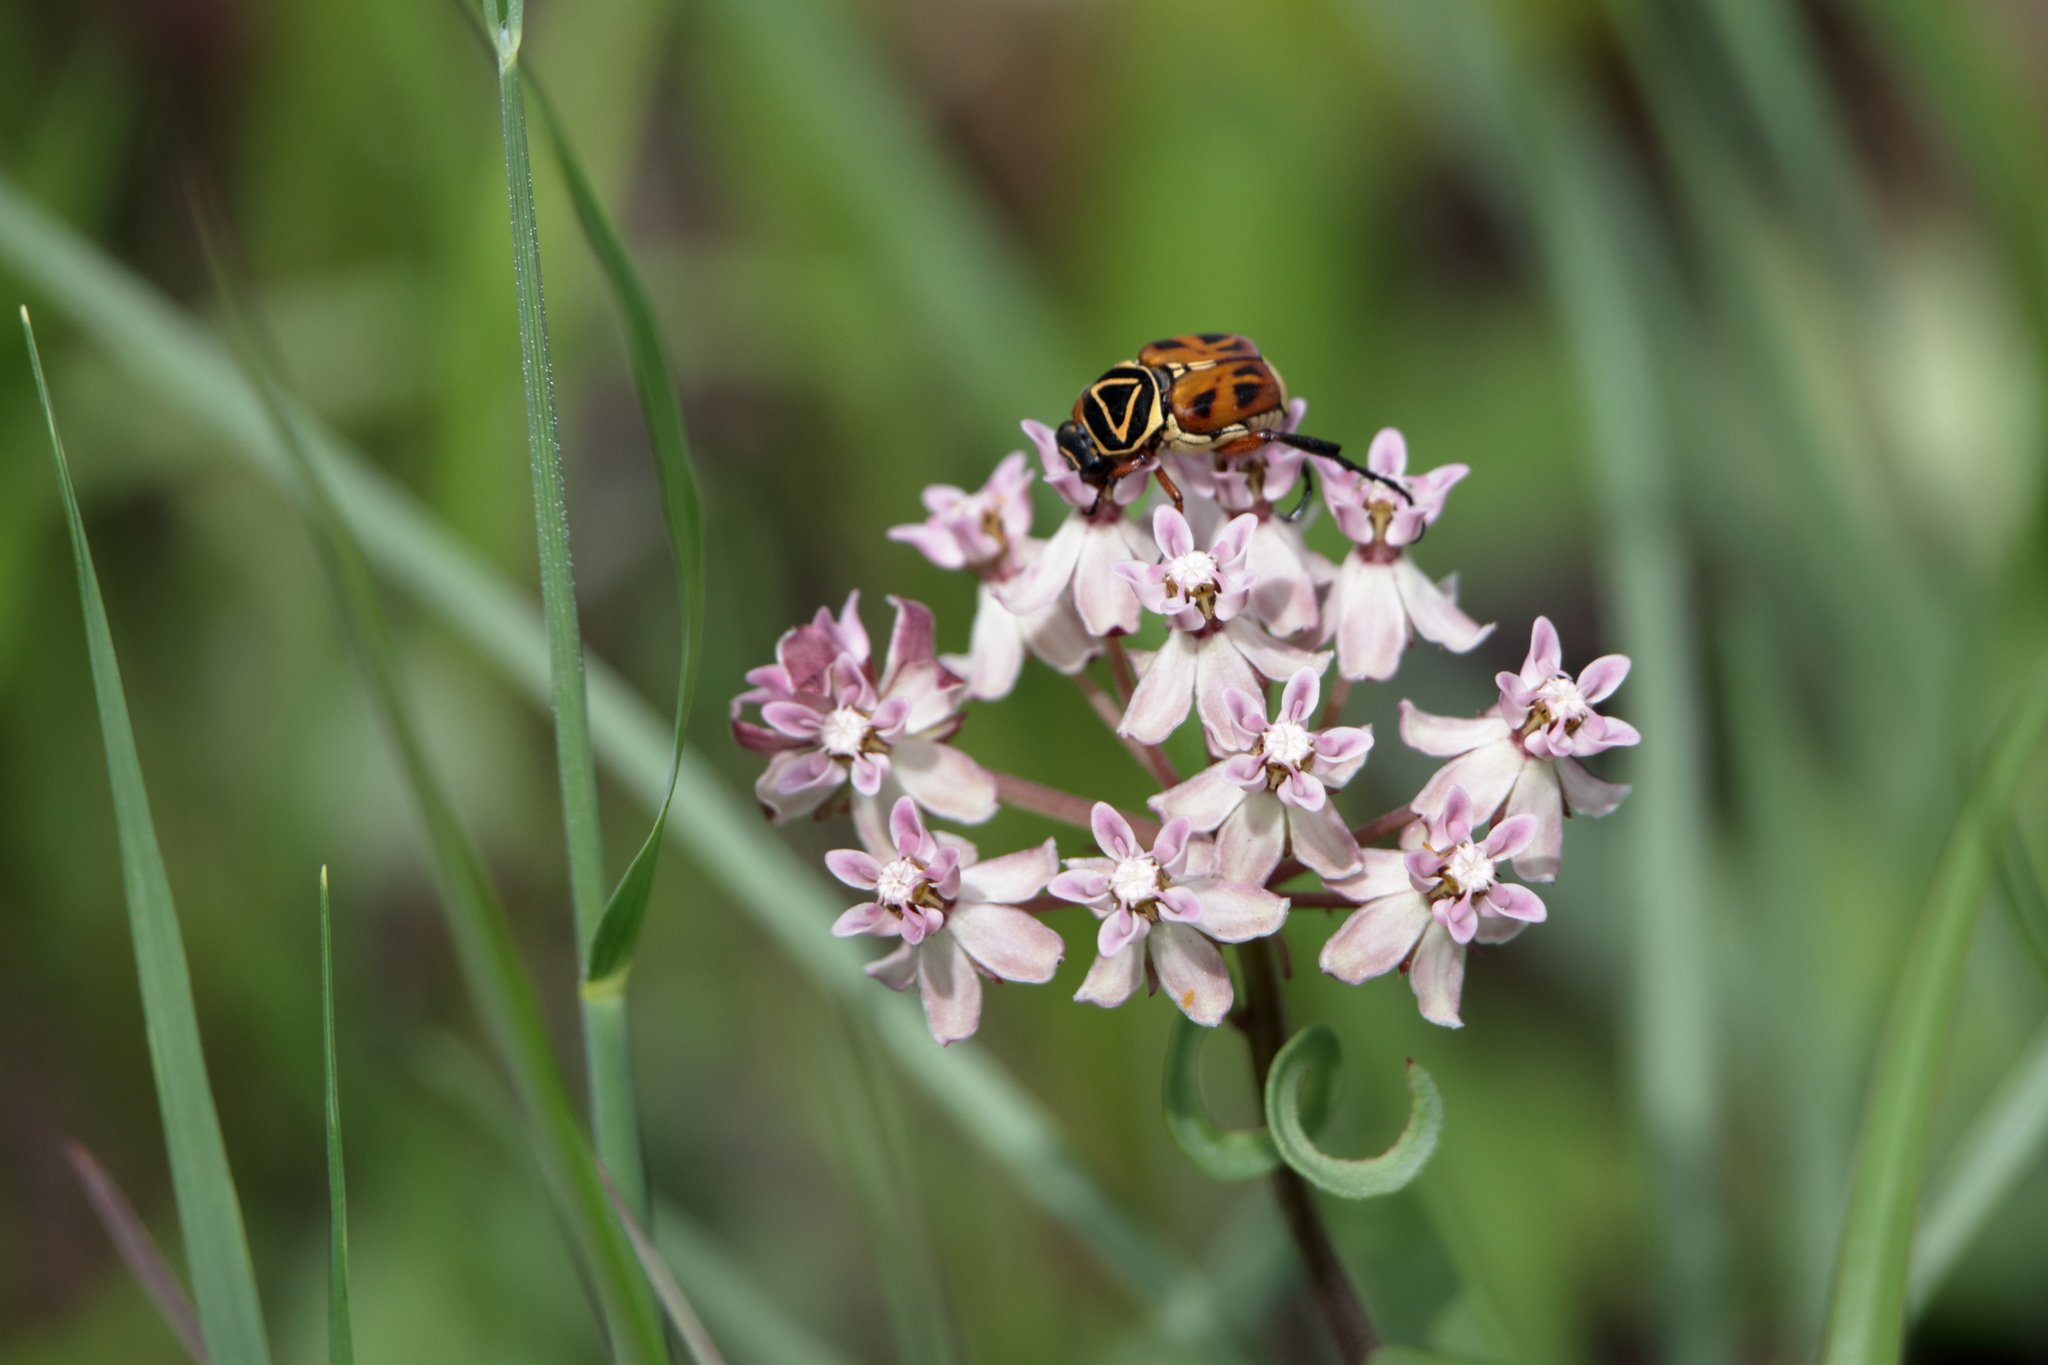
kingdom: Animalia
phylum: Arthropoda
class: Insecta
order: Coleoptera
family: Scarabaeidae
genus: Trigonopeltastes
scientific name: Trigonopeltastes delta
